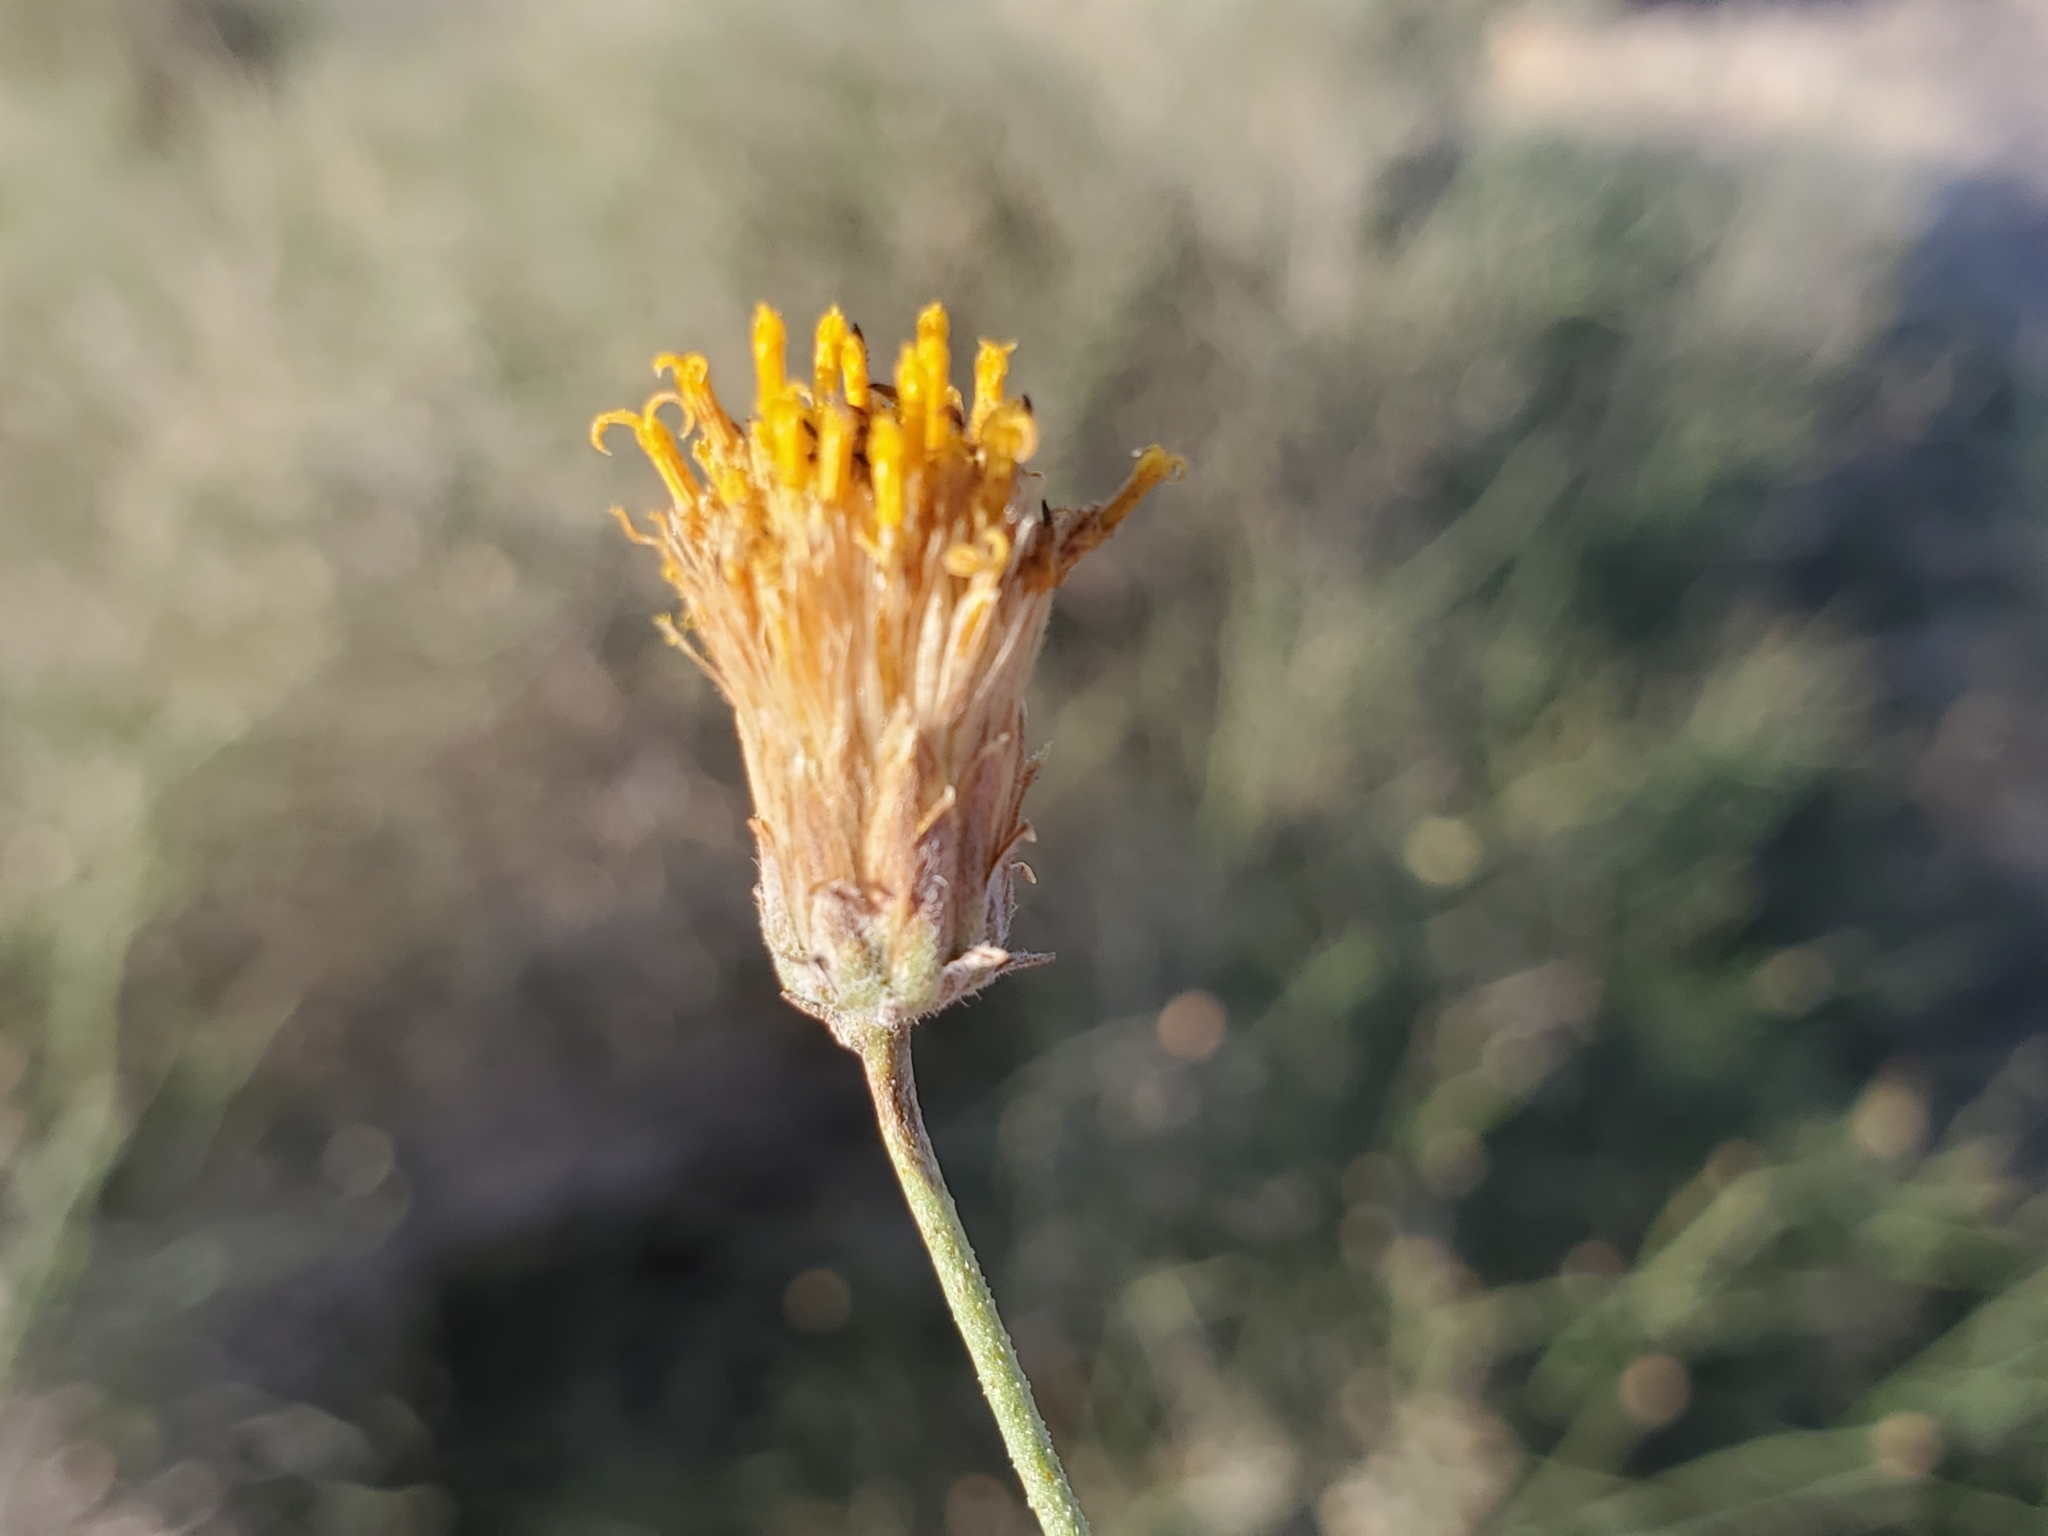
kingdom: Plantae
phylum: Tracheophyta
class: Magnoliopsida
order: Asterales
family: Asteraceae
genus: Bebbia
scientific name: Bebbia juncea
